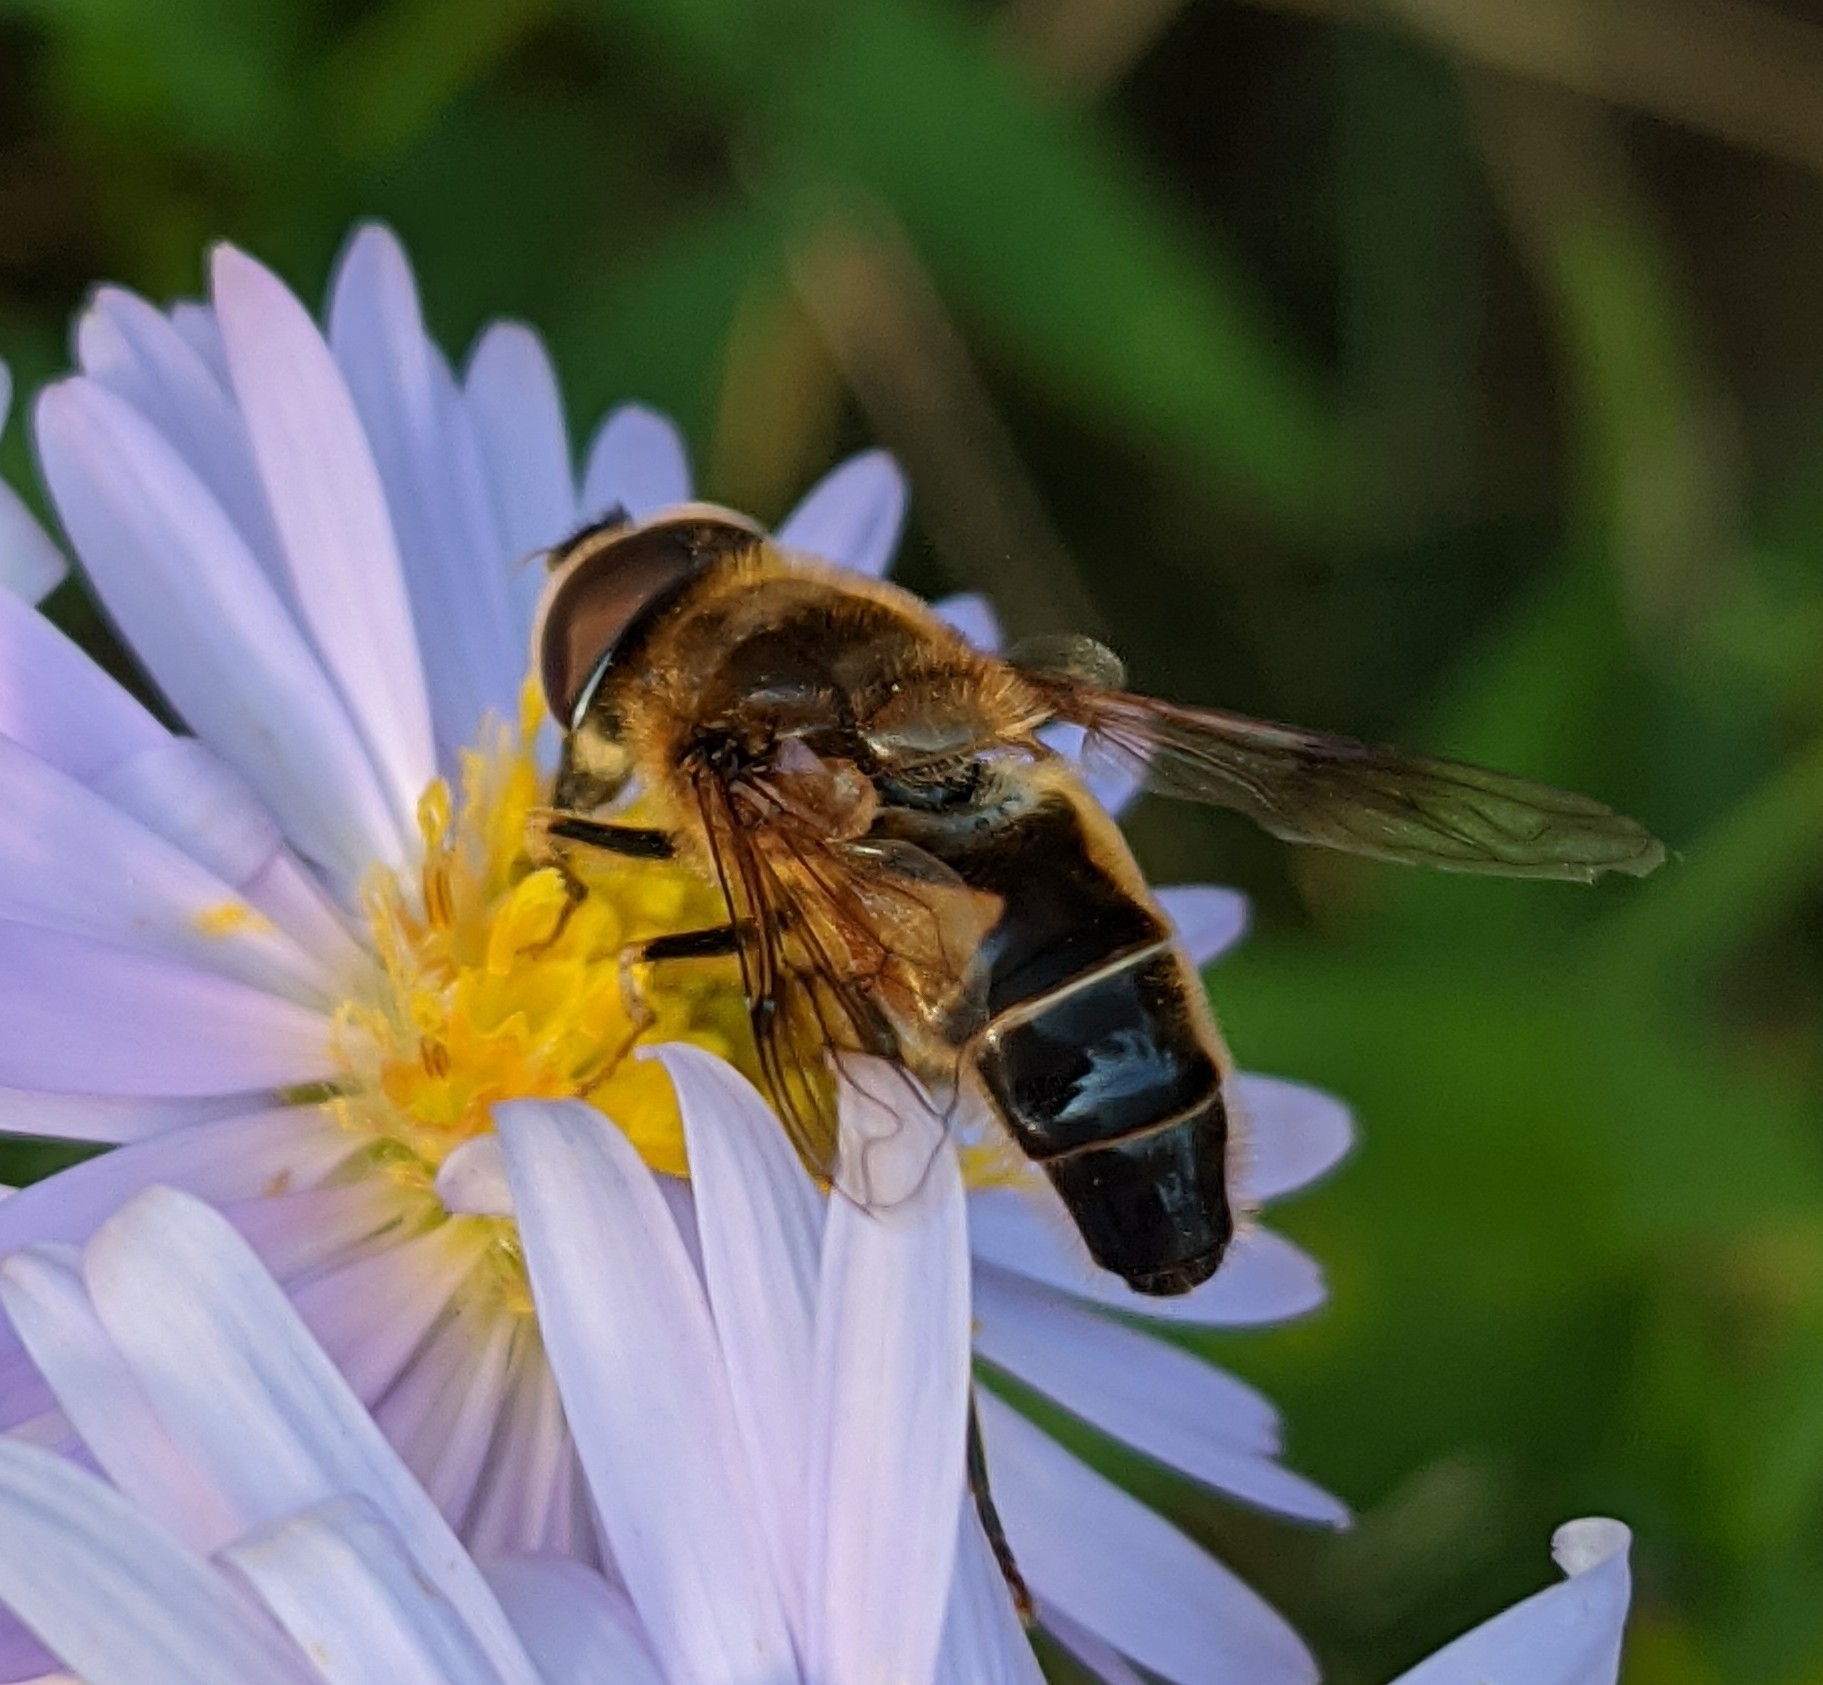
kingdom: Animalia
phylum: Arthropoda
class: Insecta
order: Diptera
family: Syrphidae
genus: Eristalis
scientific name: Eristalis pertinax
